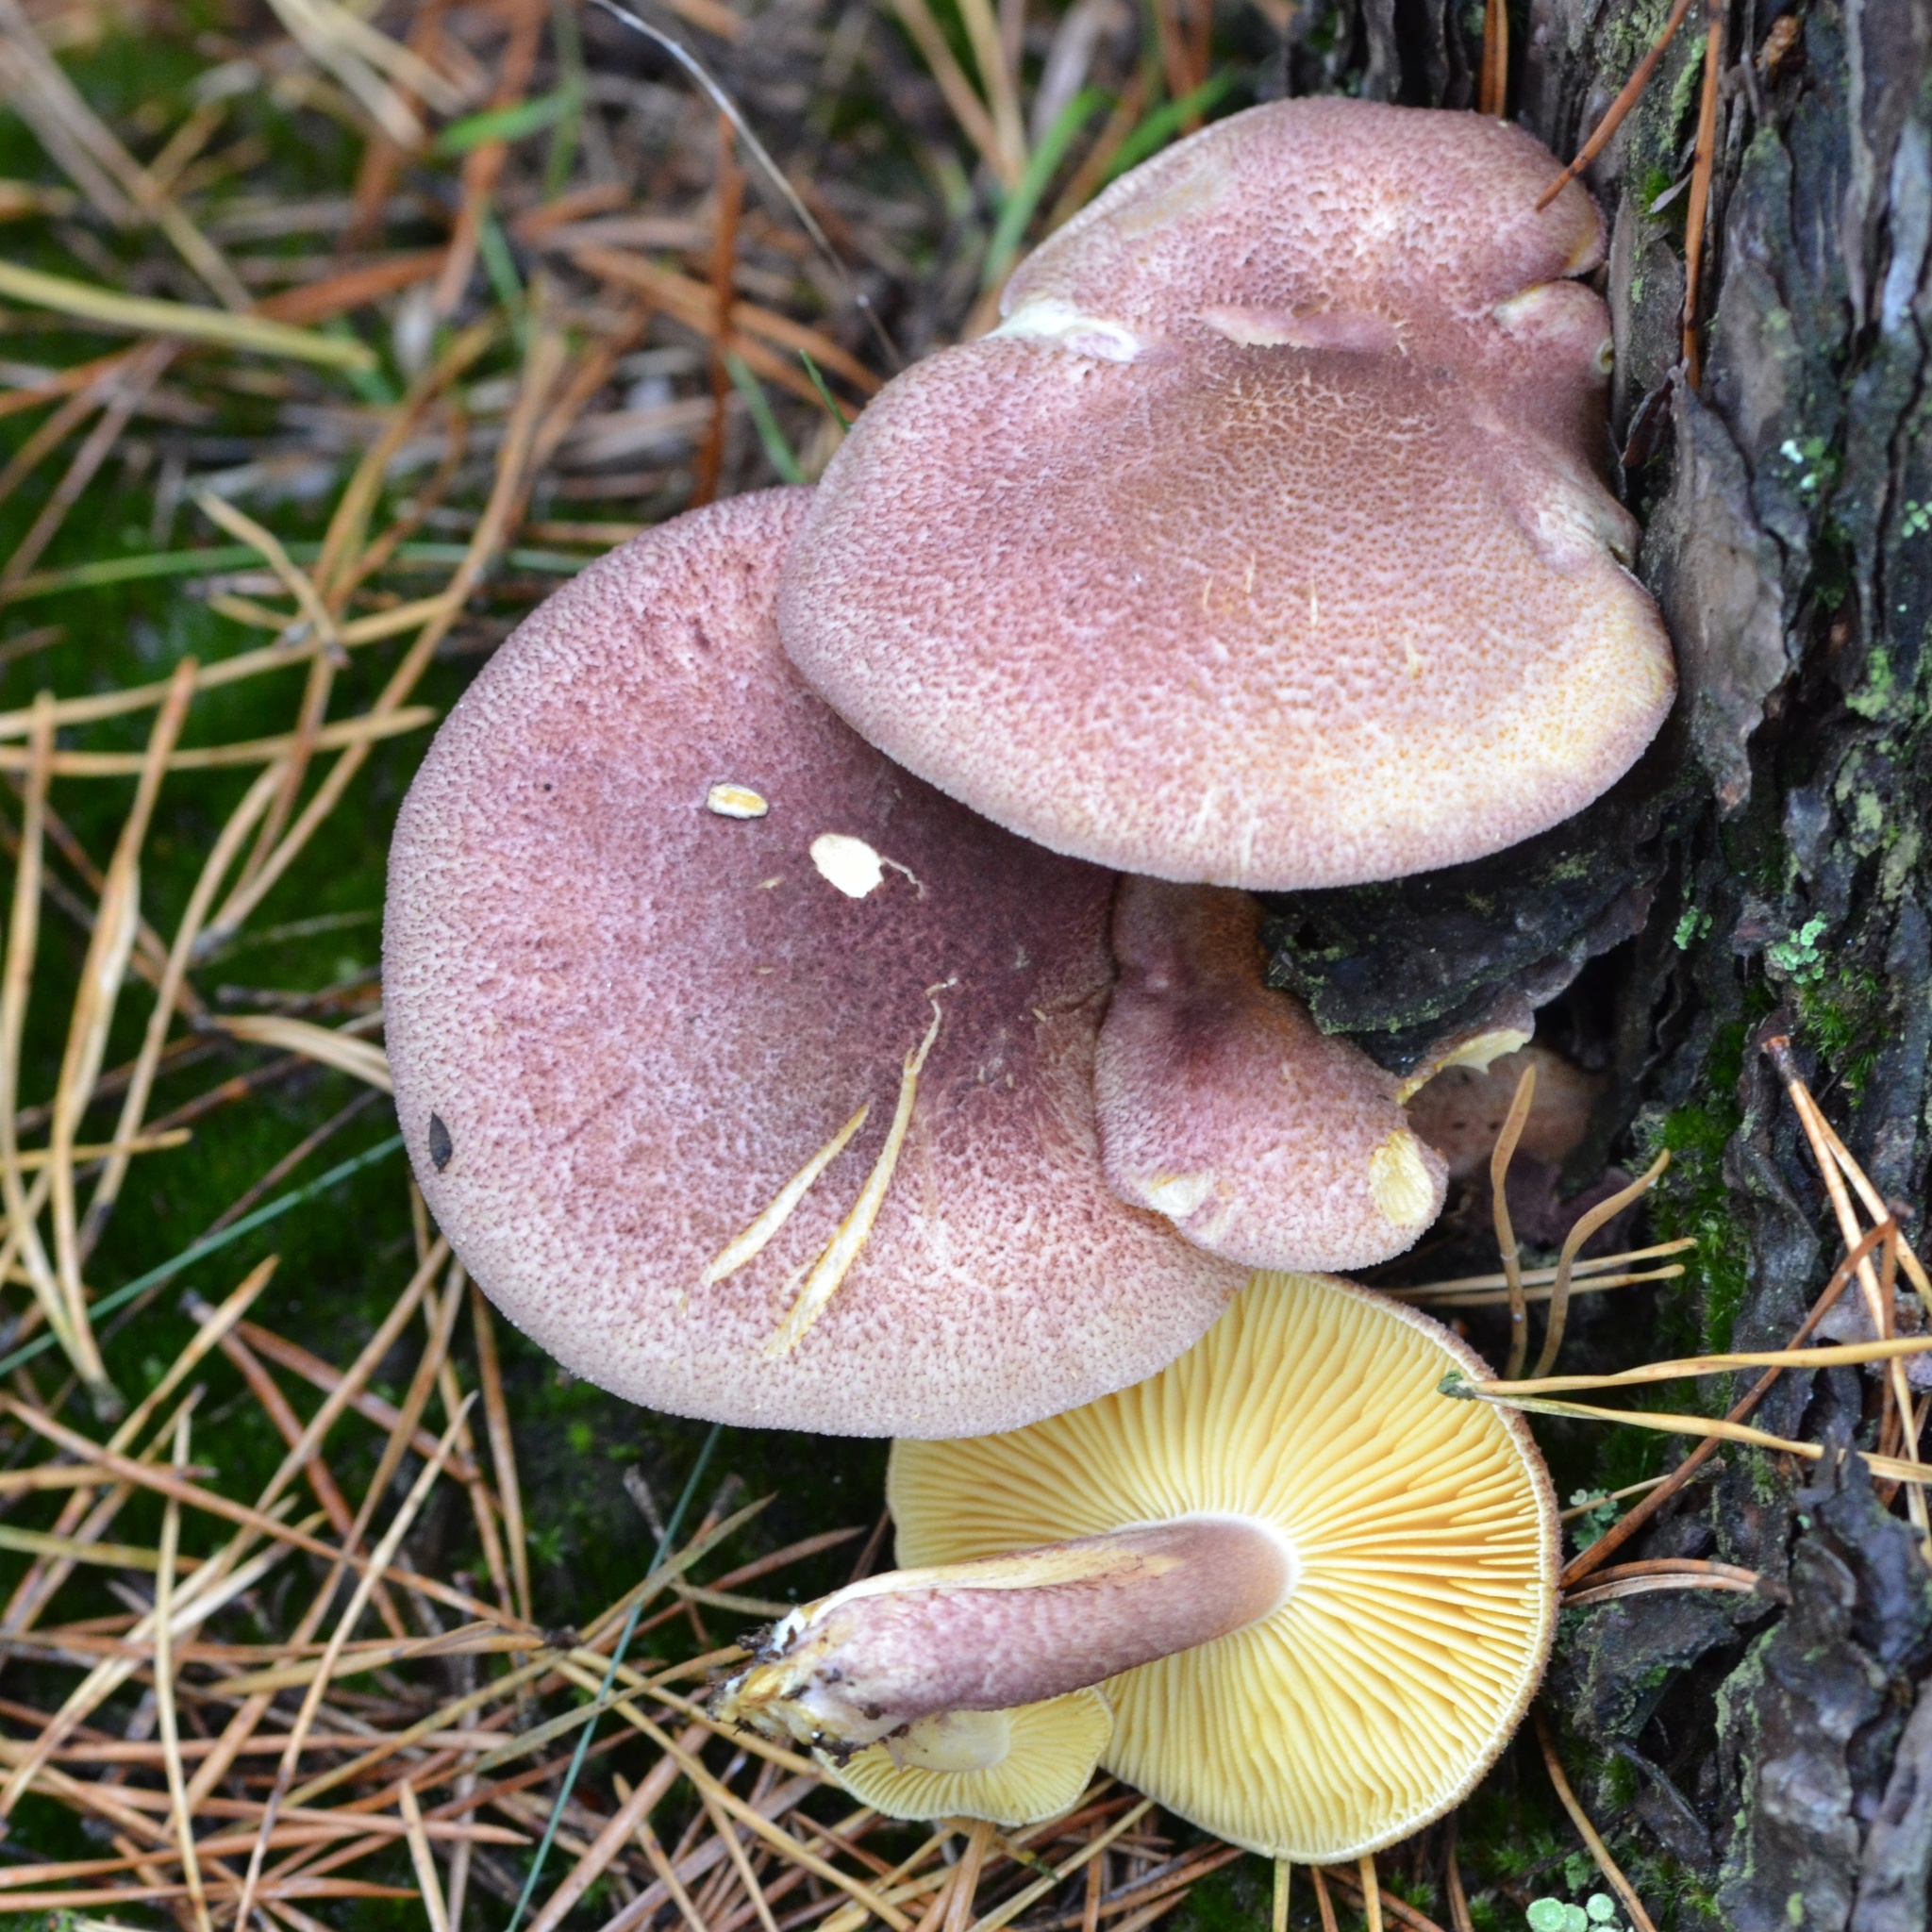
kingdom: Fungi
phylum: Basidiomycota
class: Agaricomycetes
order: Agaricales
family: Tricholomataceae
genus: Tricholomopsis
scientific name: Tricholomopsis rutilans
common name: Plums and custard
